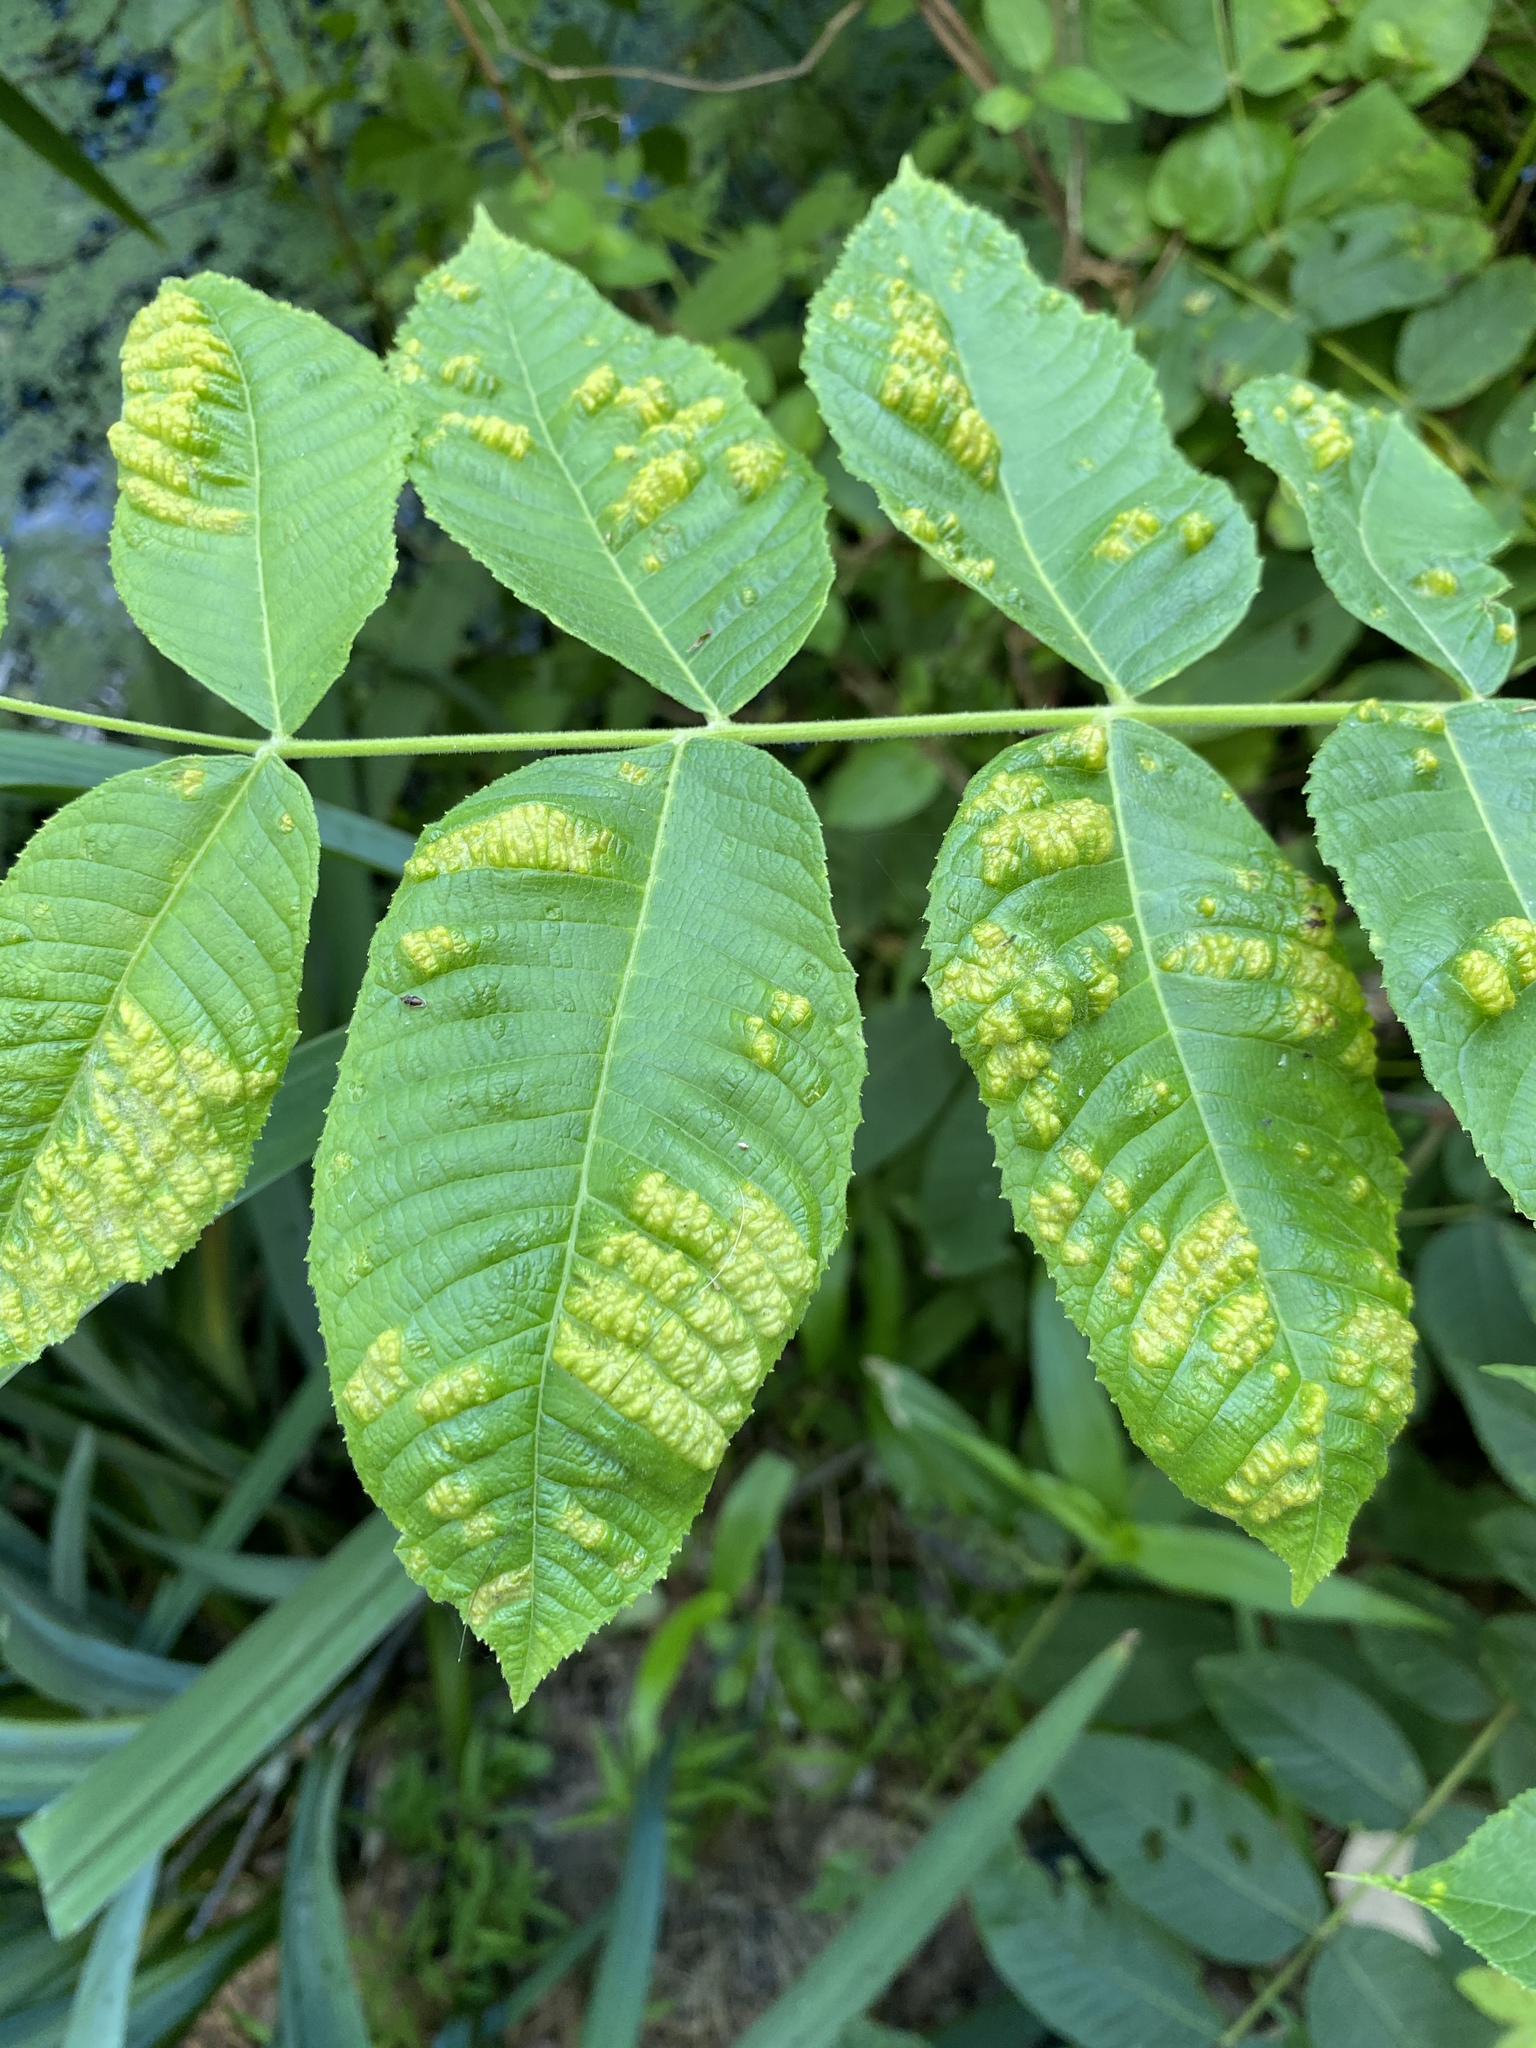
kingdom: Animalia
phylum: Arthropoda
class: Arachnida
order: Trombidiformes
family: Eriophyidae
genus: Aceria
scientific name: Aceria
